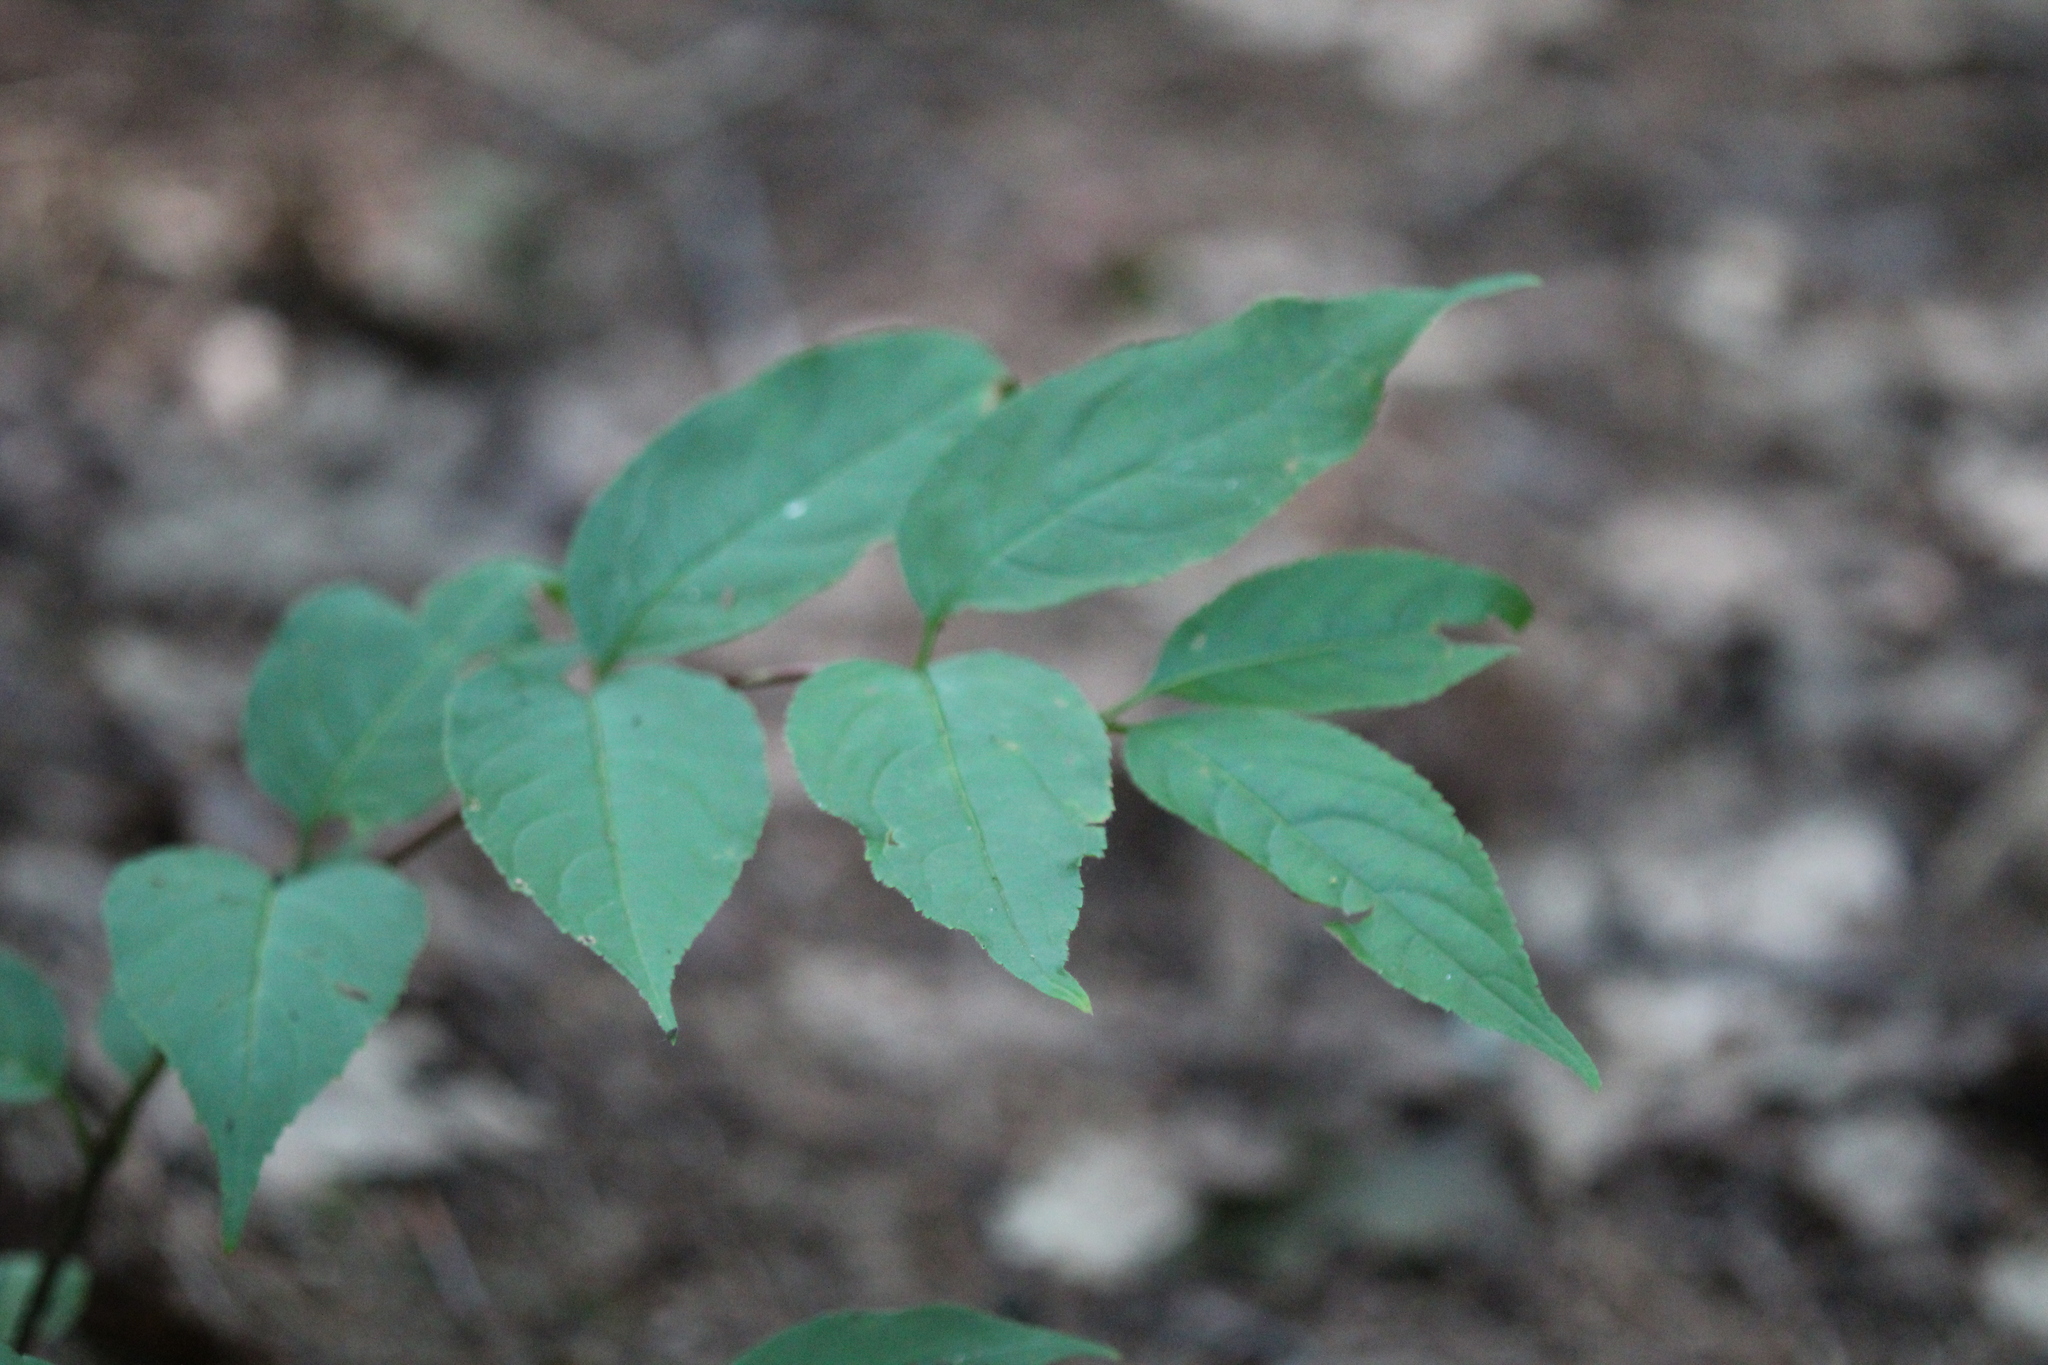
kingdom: Plantae
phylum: Tracheophyta
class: Magnoliopsida
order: Dipsacales
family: Caprifoliaceae
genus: Diervilla
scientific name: Diervilla lonicera
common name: Bush-honeysuckle
